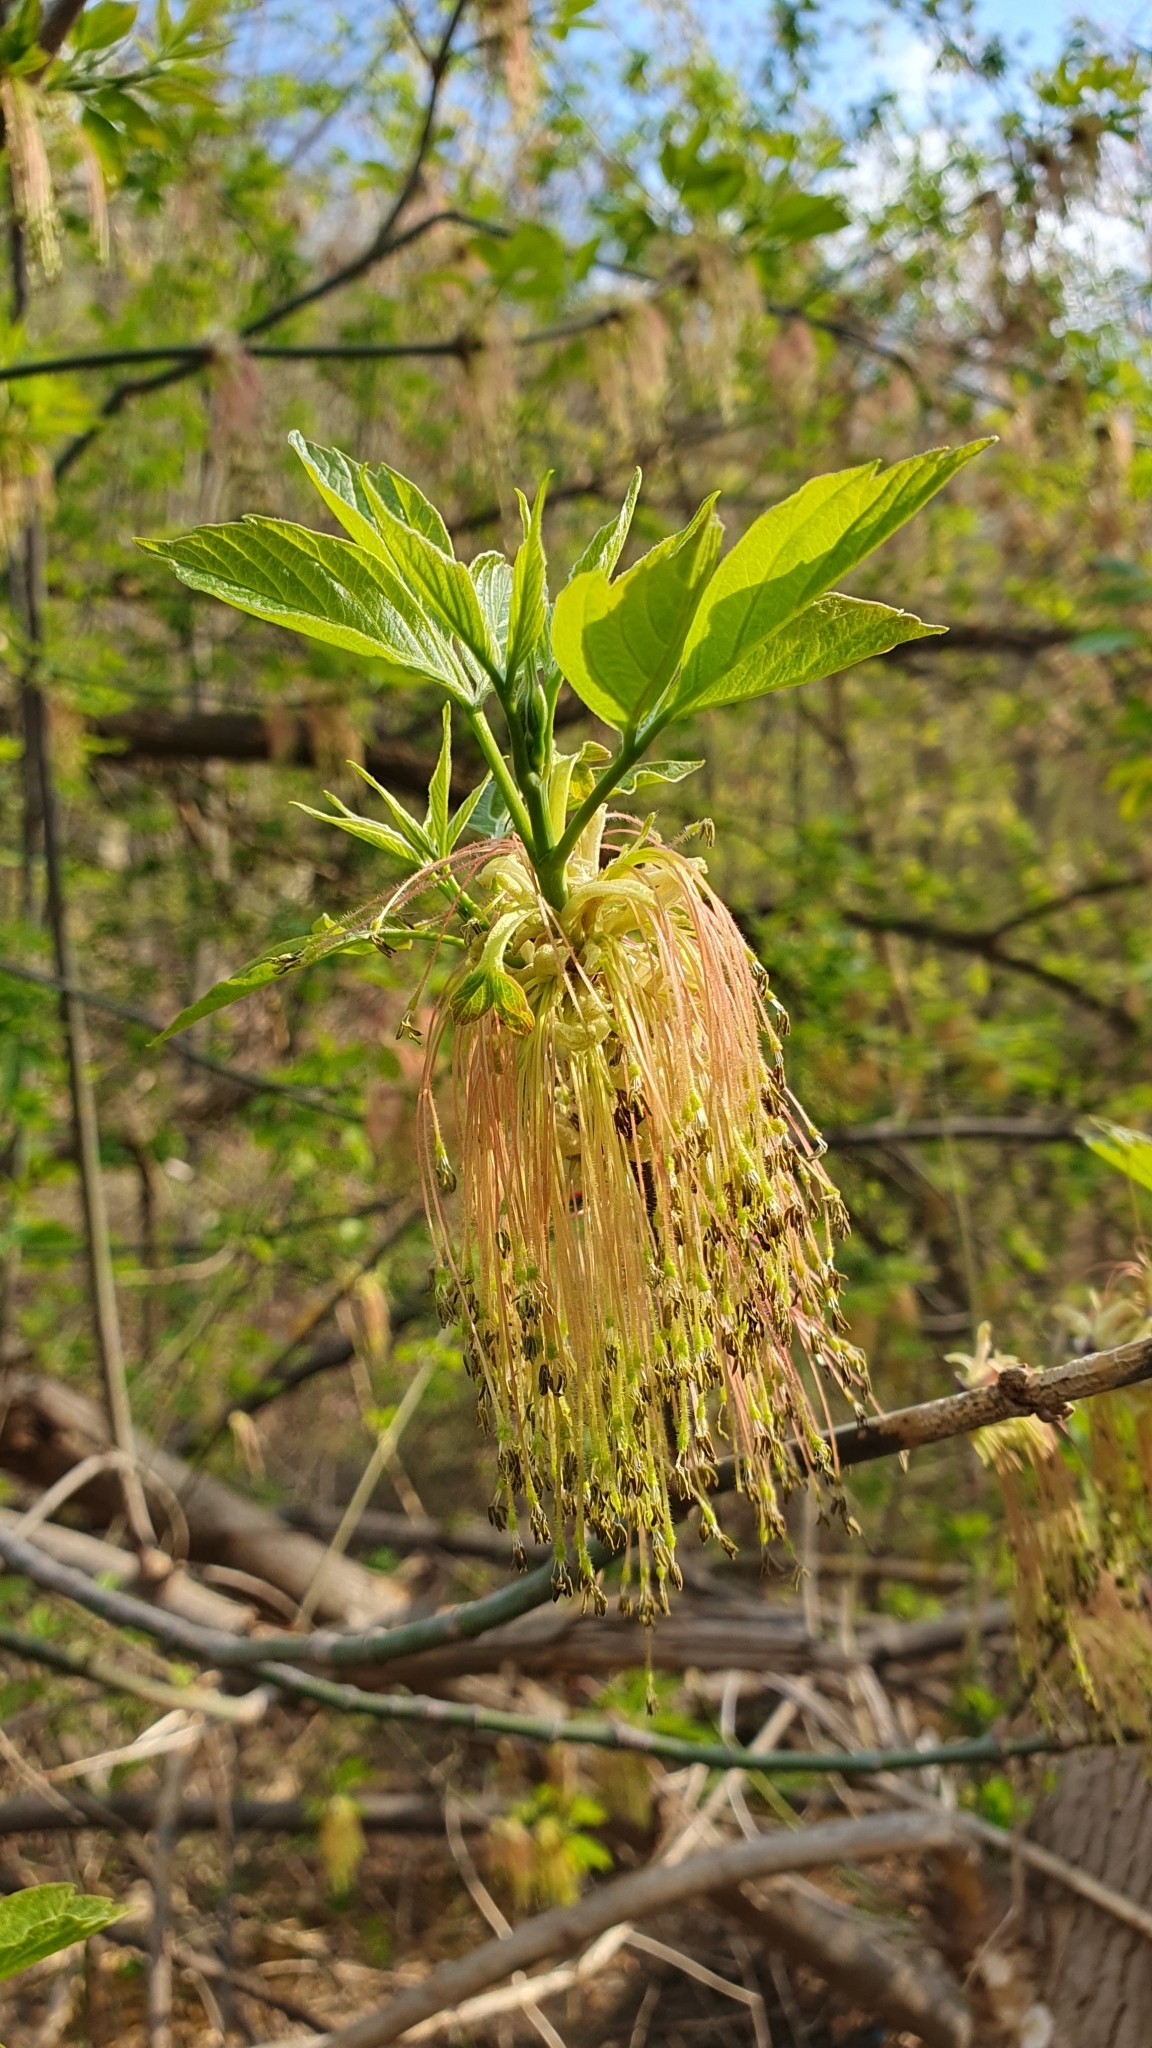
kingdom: Plantae
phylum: Tracheophyta
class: Magnoliopsida
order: Sapindales
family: Sapindaceae
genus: Acer
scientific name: Acer negundo
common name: Ashleaf maple
